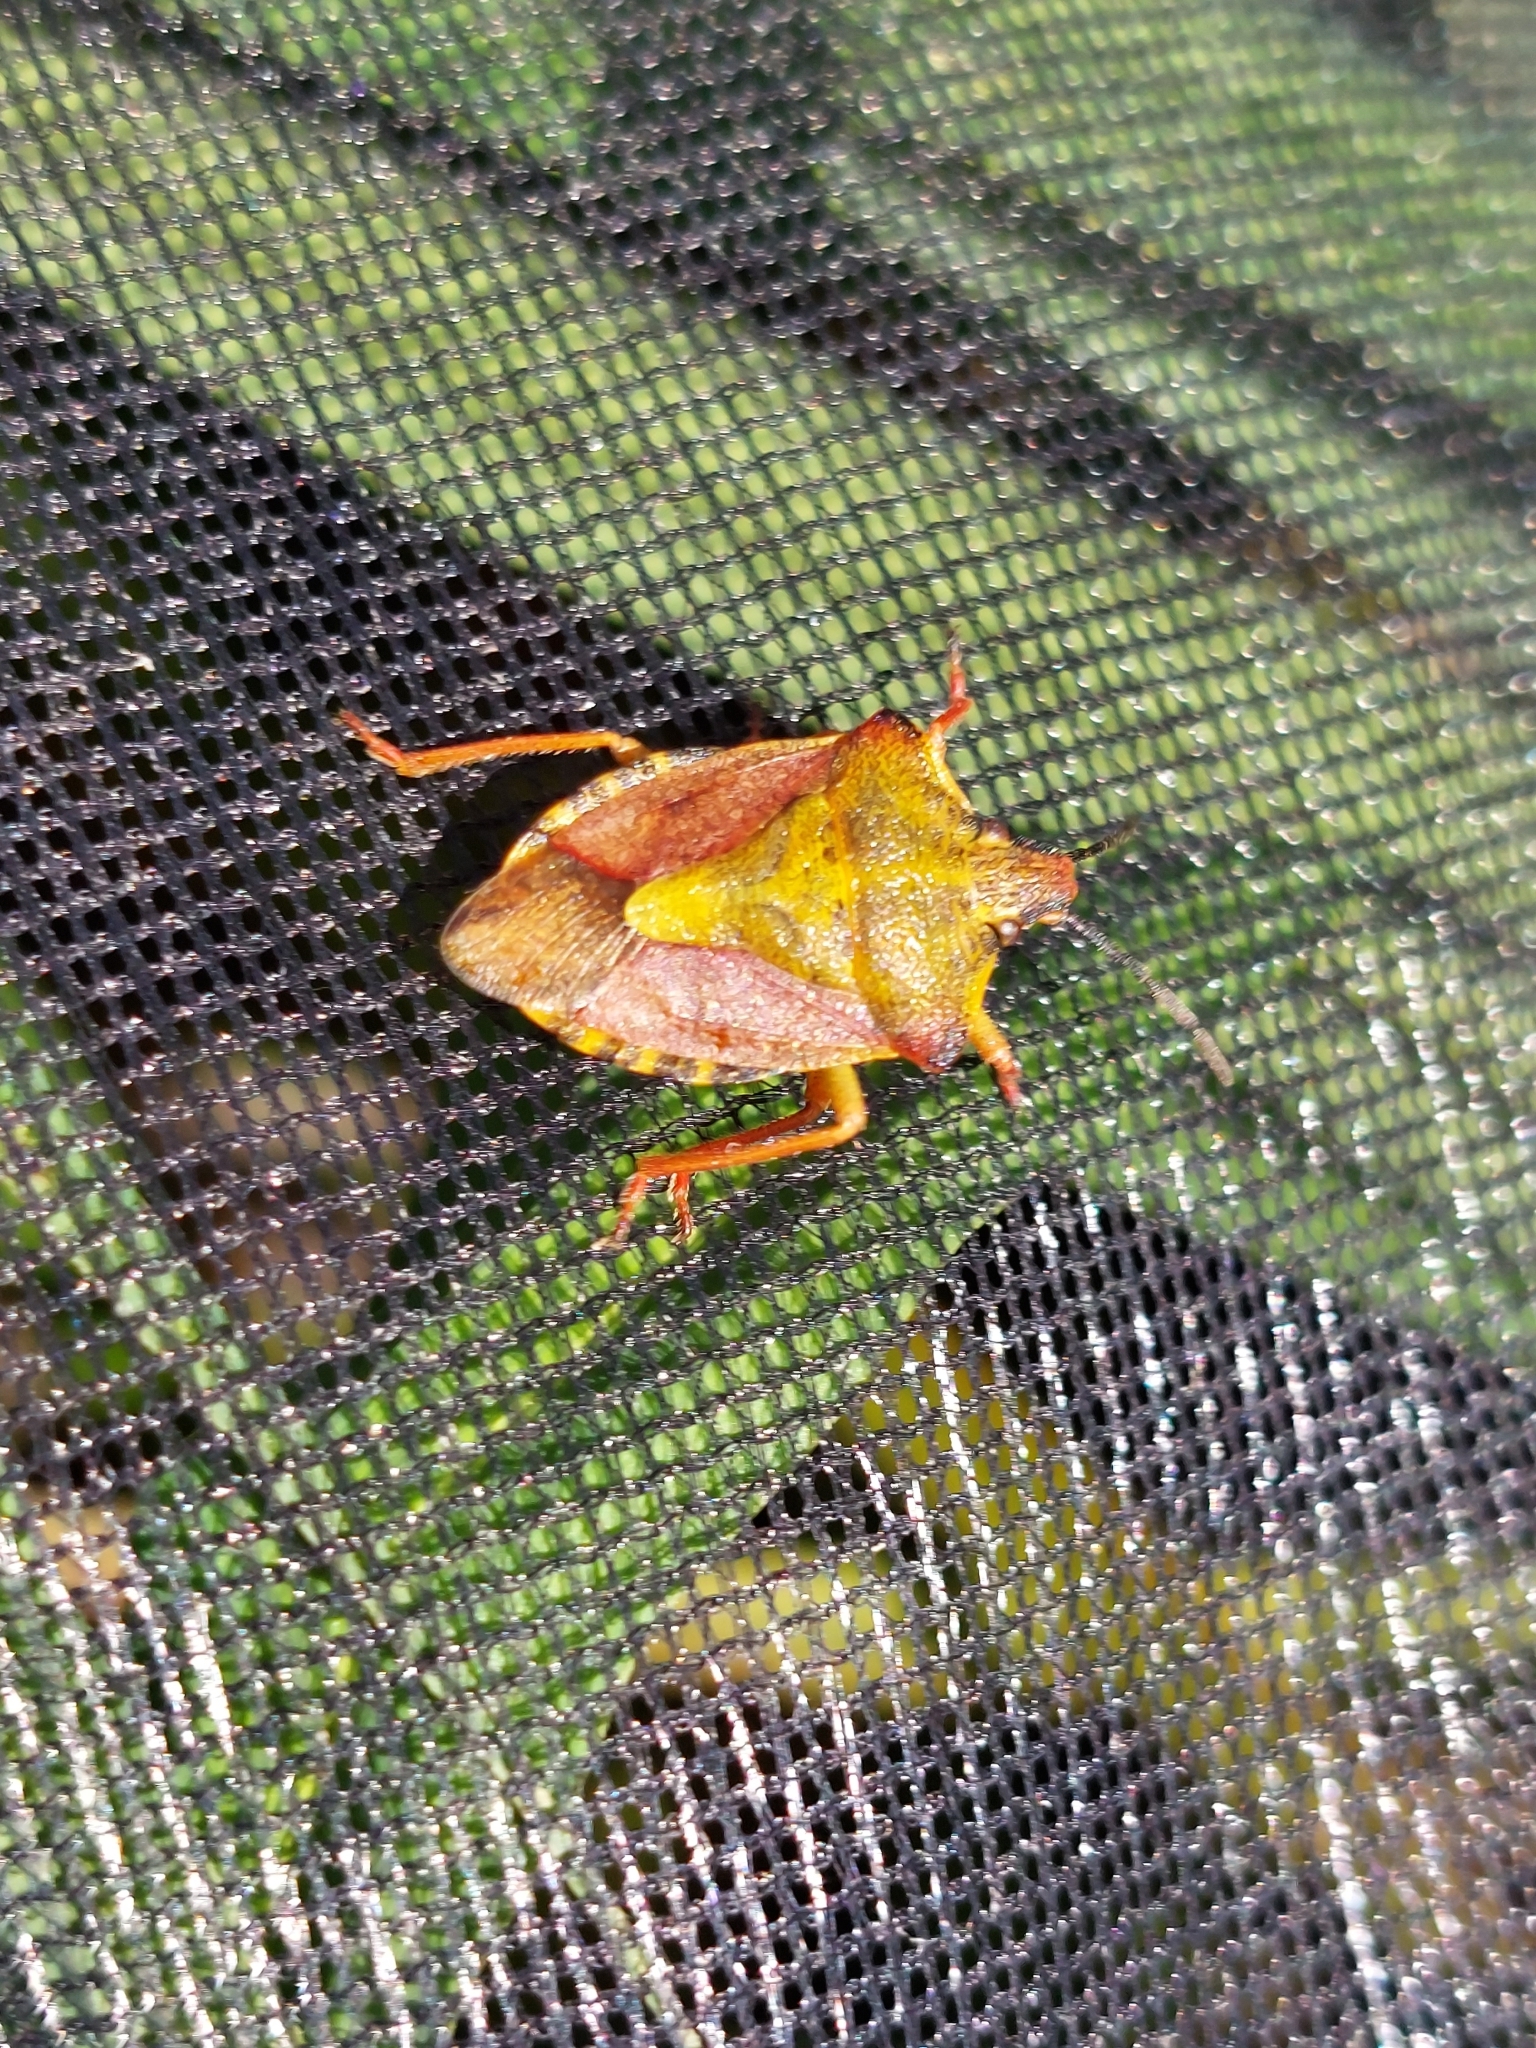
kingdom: Animalia
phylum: Arthropoda
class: Insecta
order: Hemiptera
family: Pentatomidae
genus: Carpocoris
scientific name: Carpocoris purpureipennis
